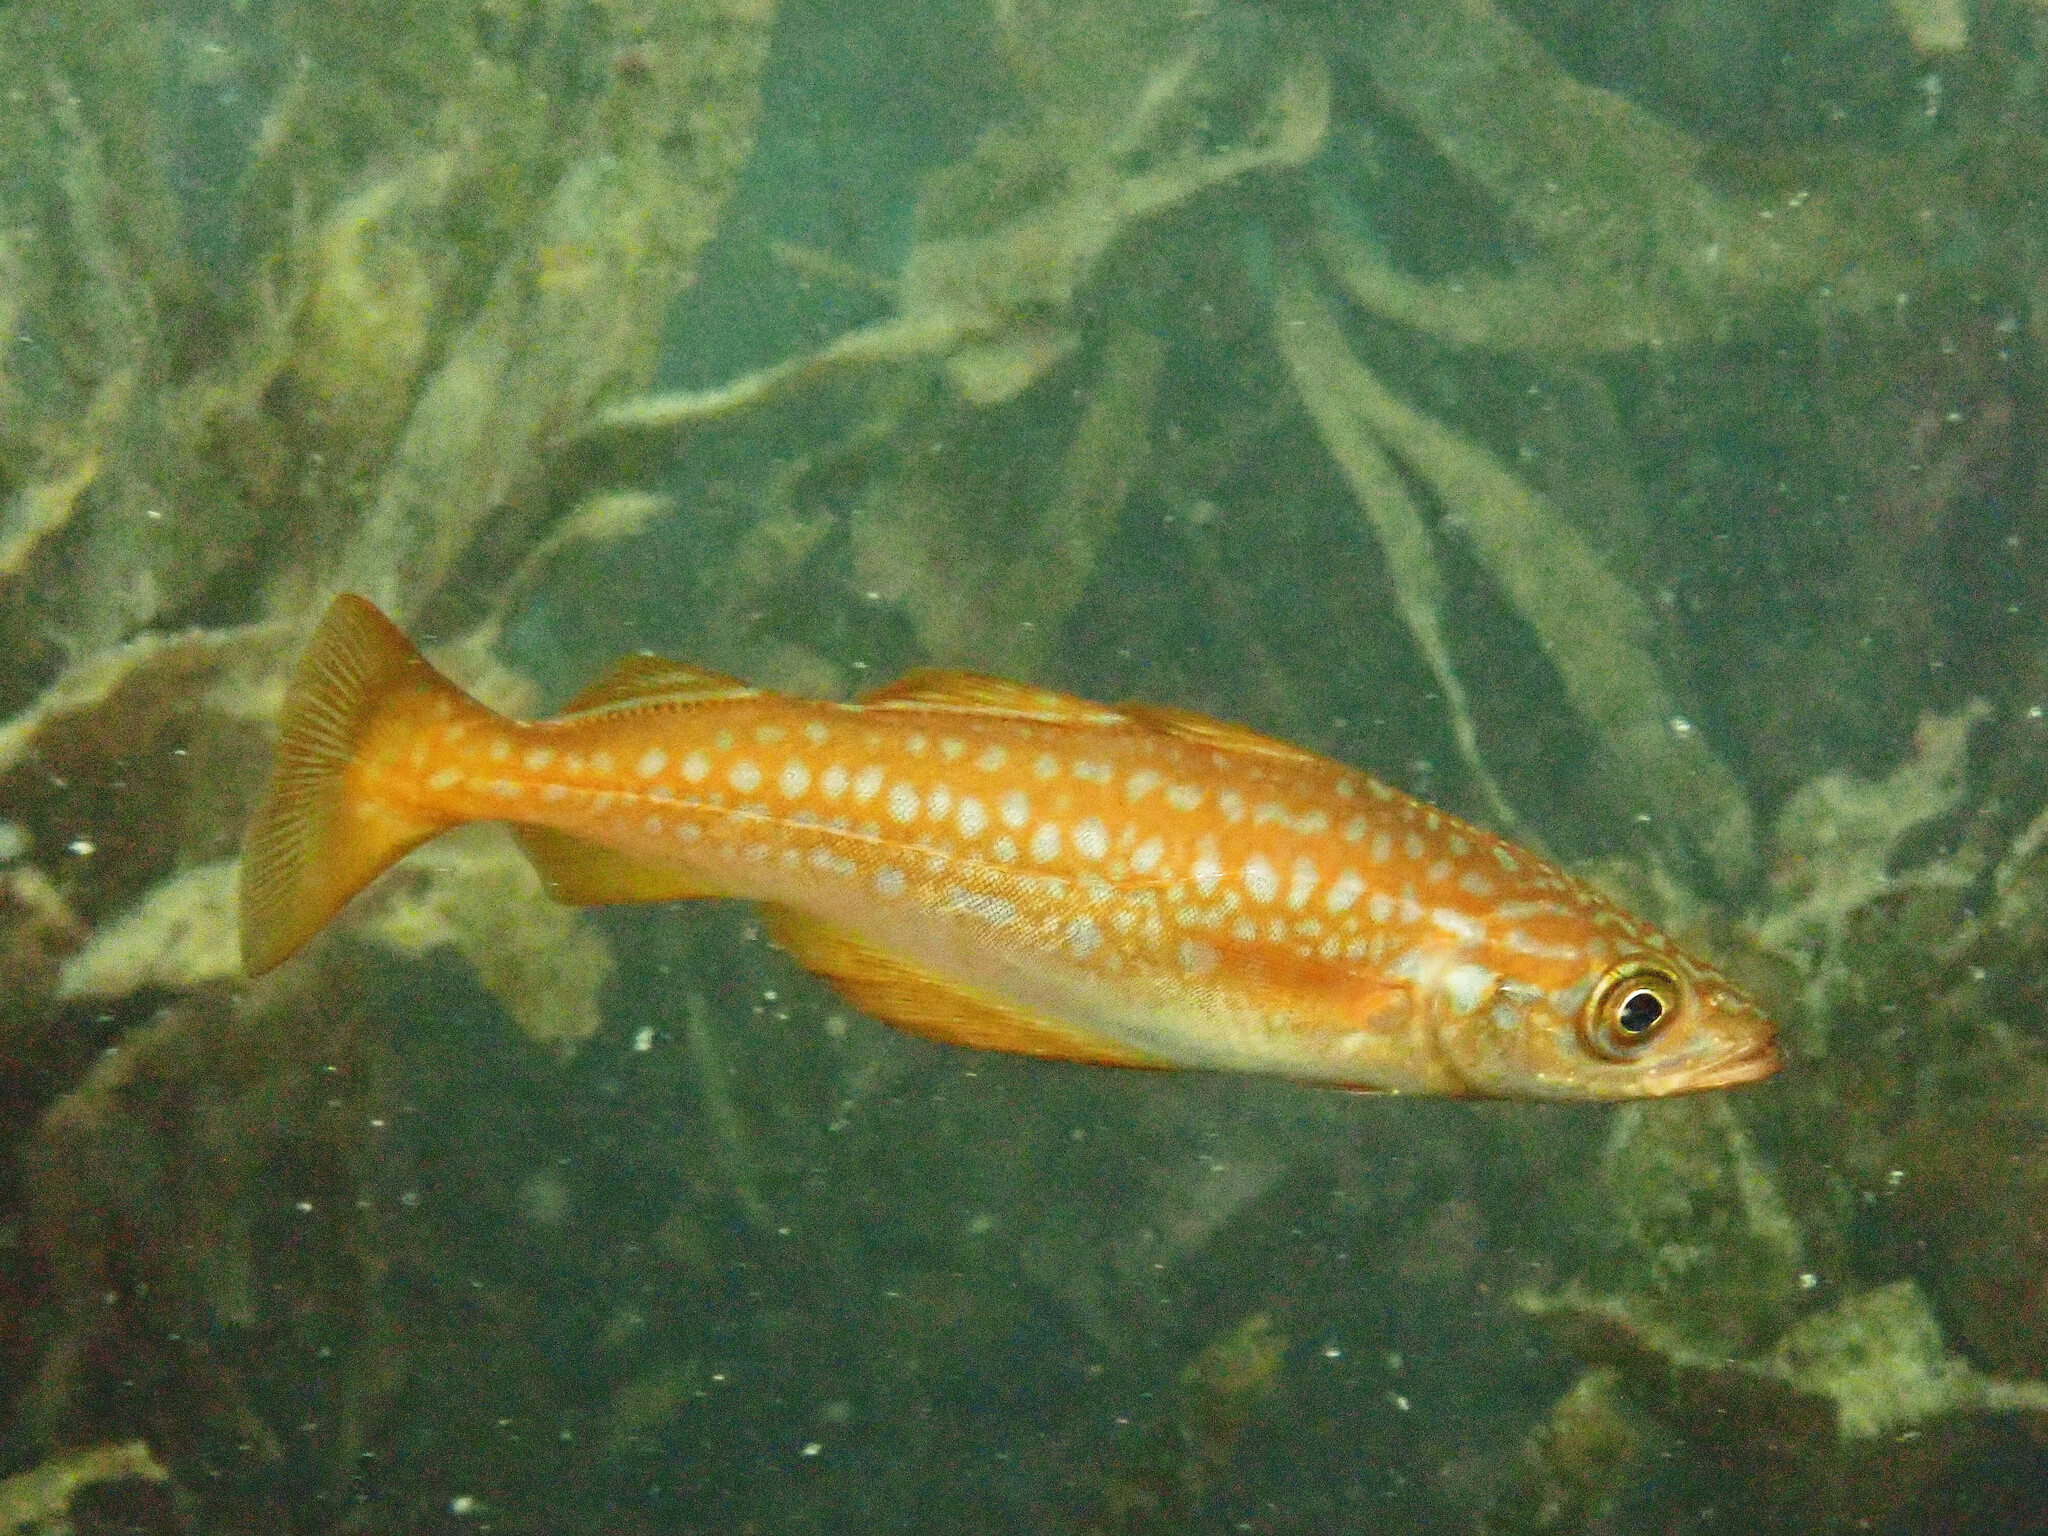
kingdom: Animalia
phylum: Chordata
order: Gadiformes
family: Gadidae
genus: Pollachius
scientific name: Pollachius pollachius
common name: Pollack
